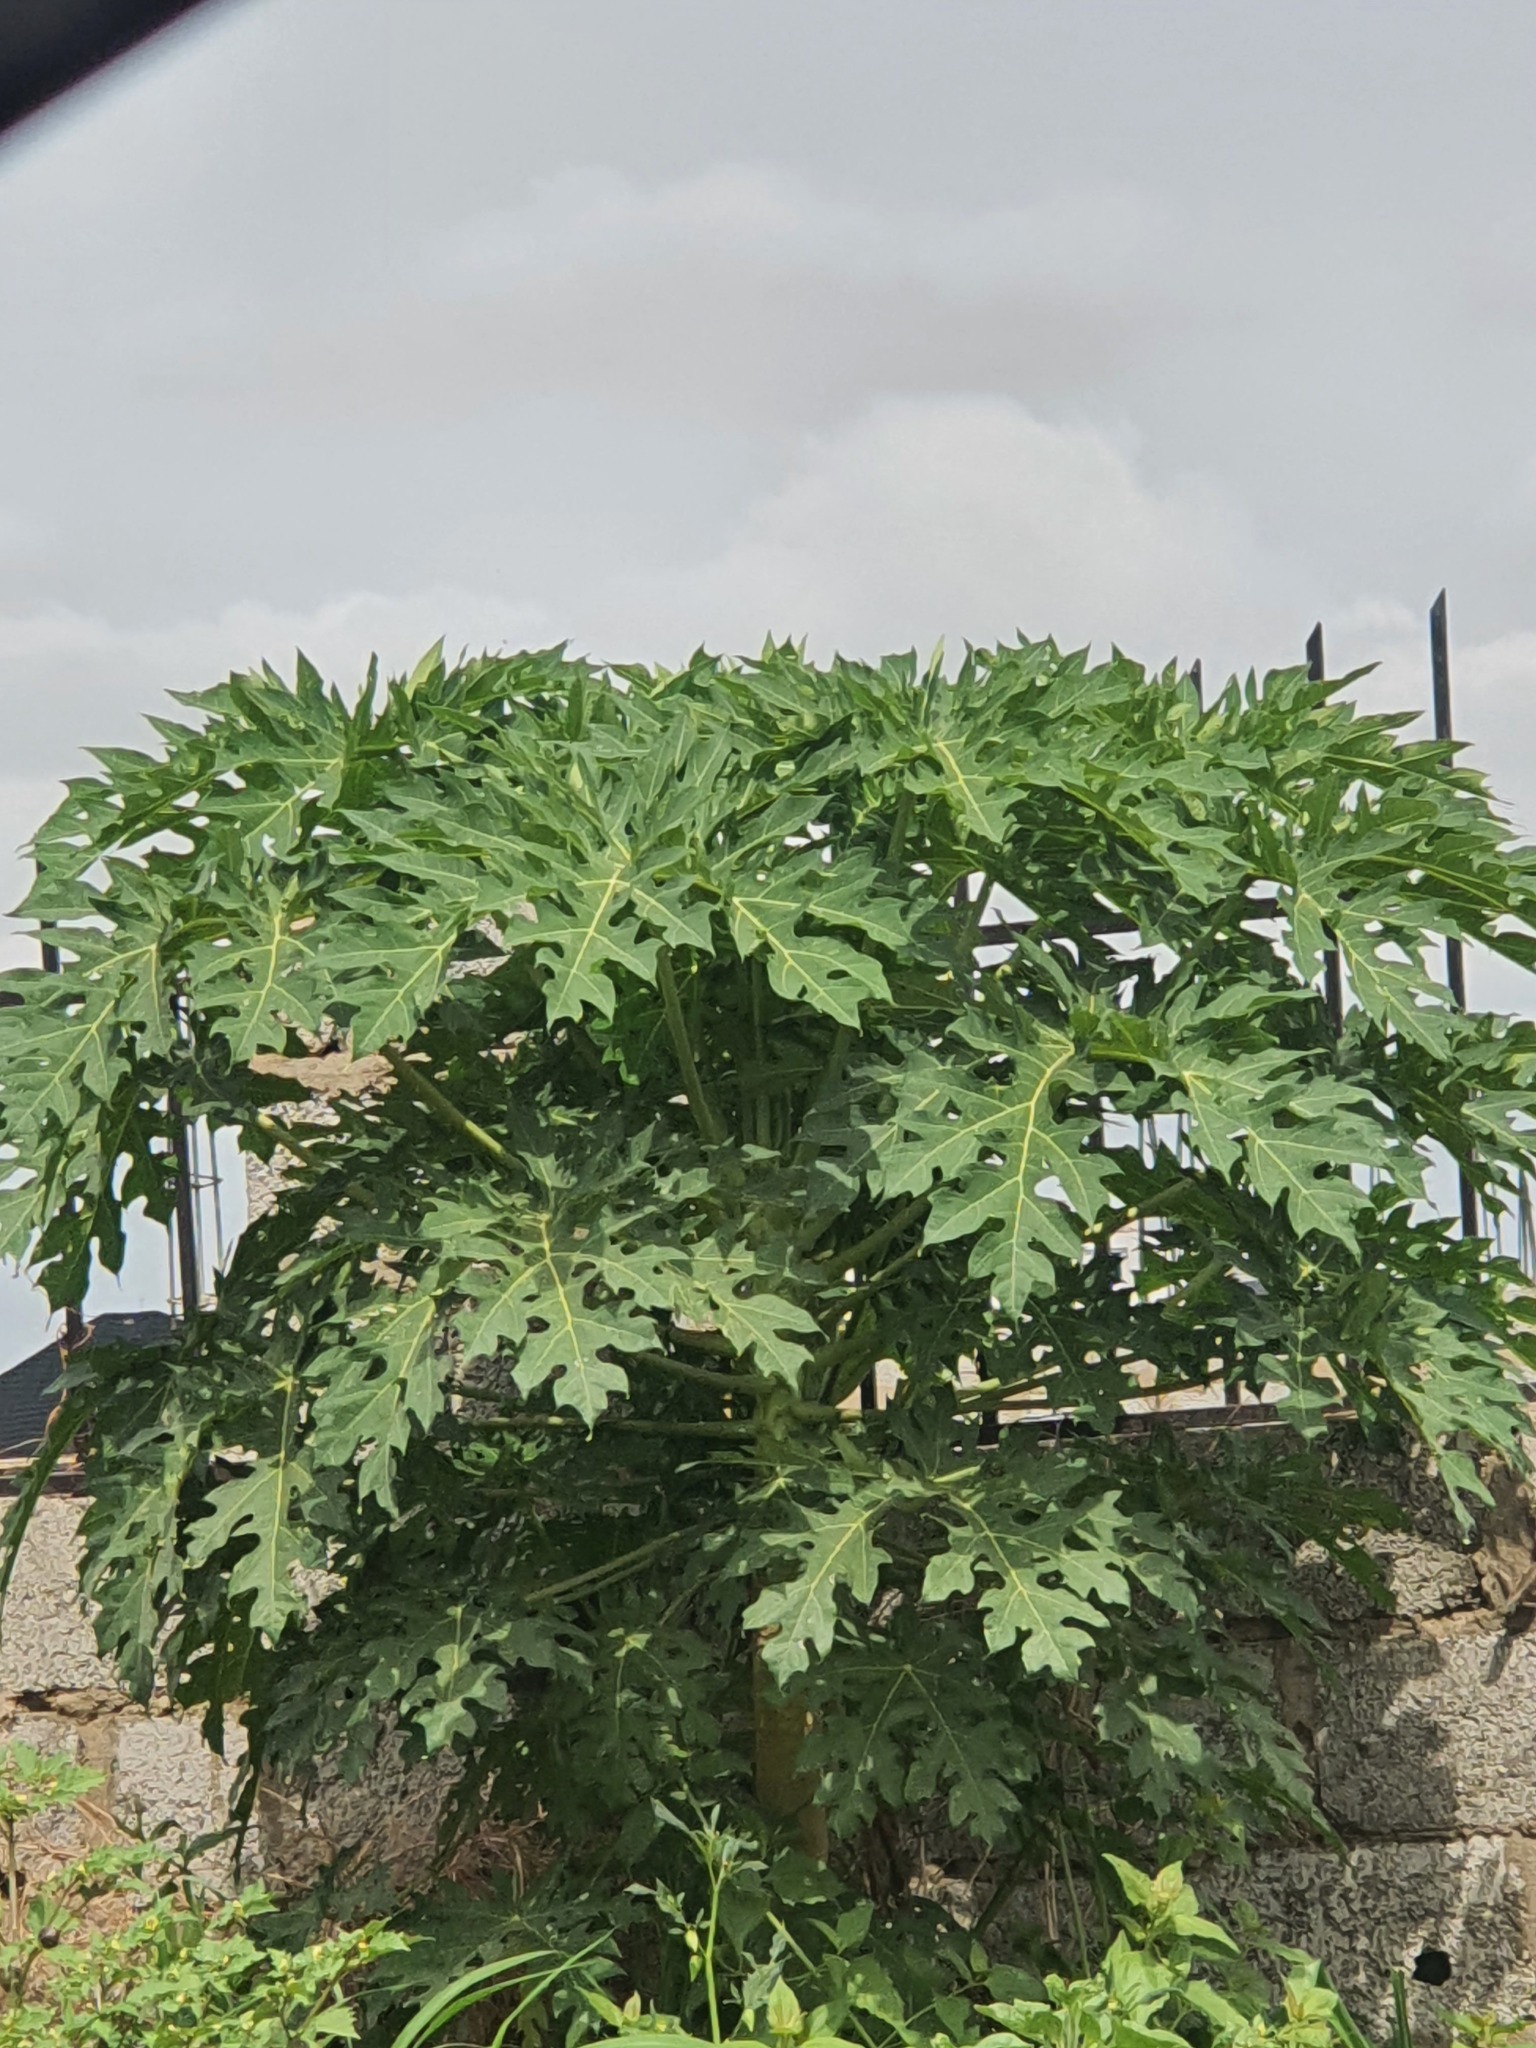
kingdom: Plantae
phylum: Tracheophyta
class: Magnoliopsida
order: Brassicales
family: Caricaceae
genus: Carica
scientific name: Carica papaya
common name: Papaya
